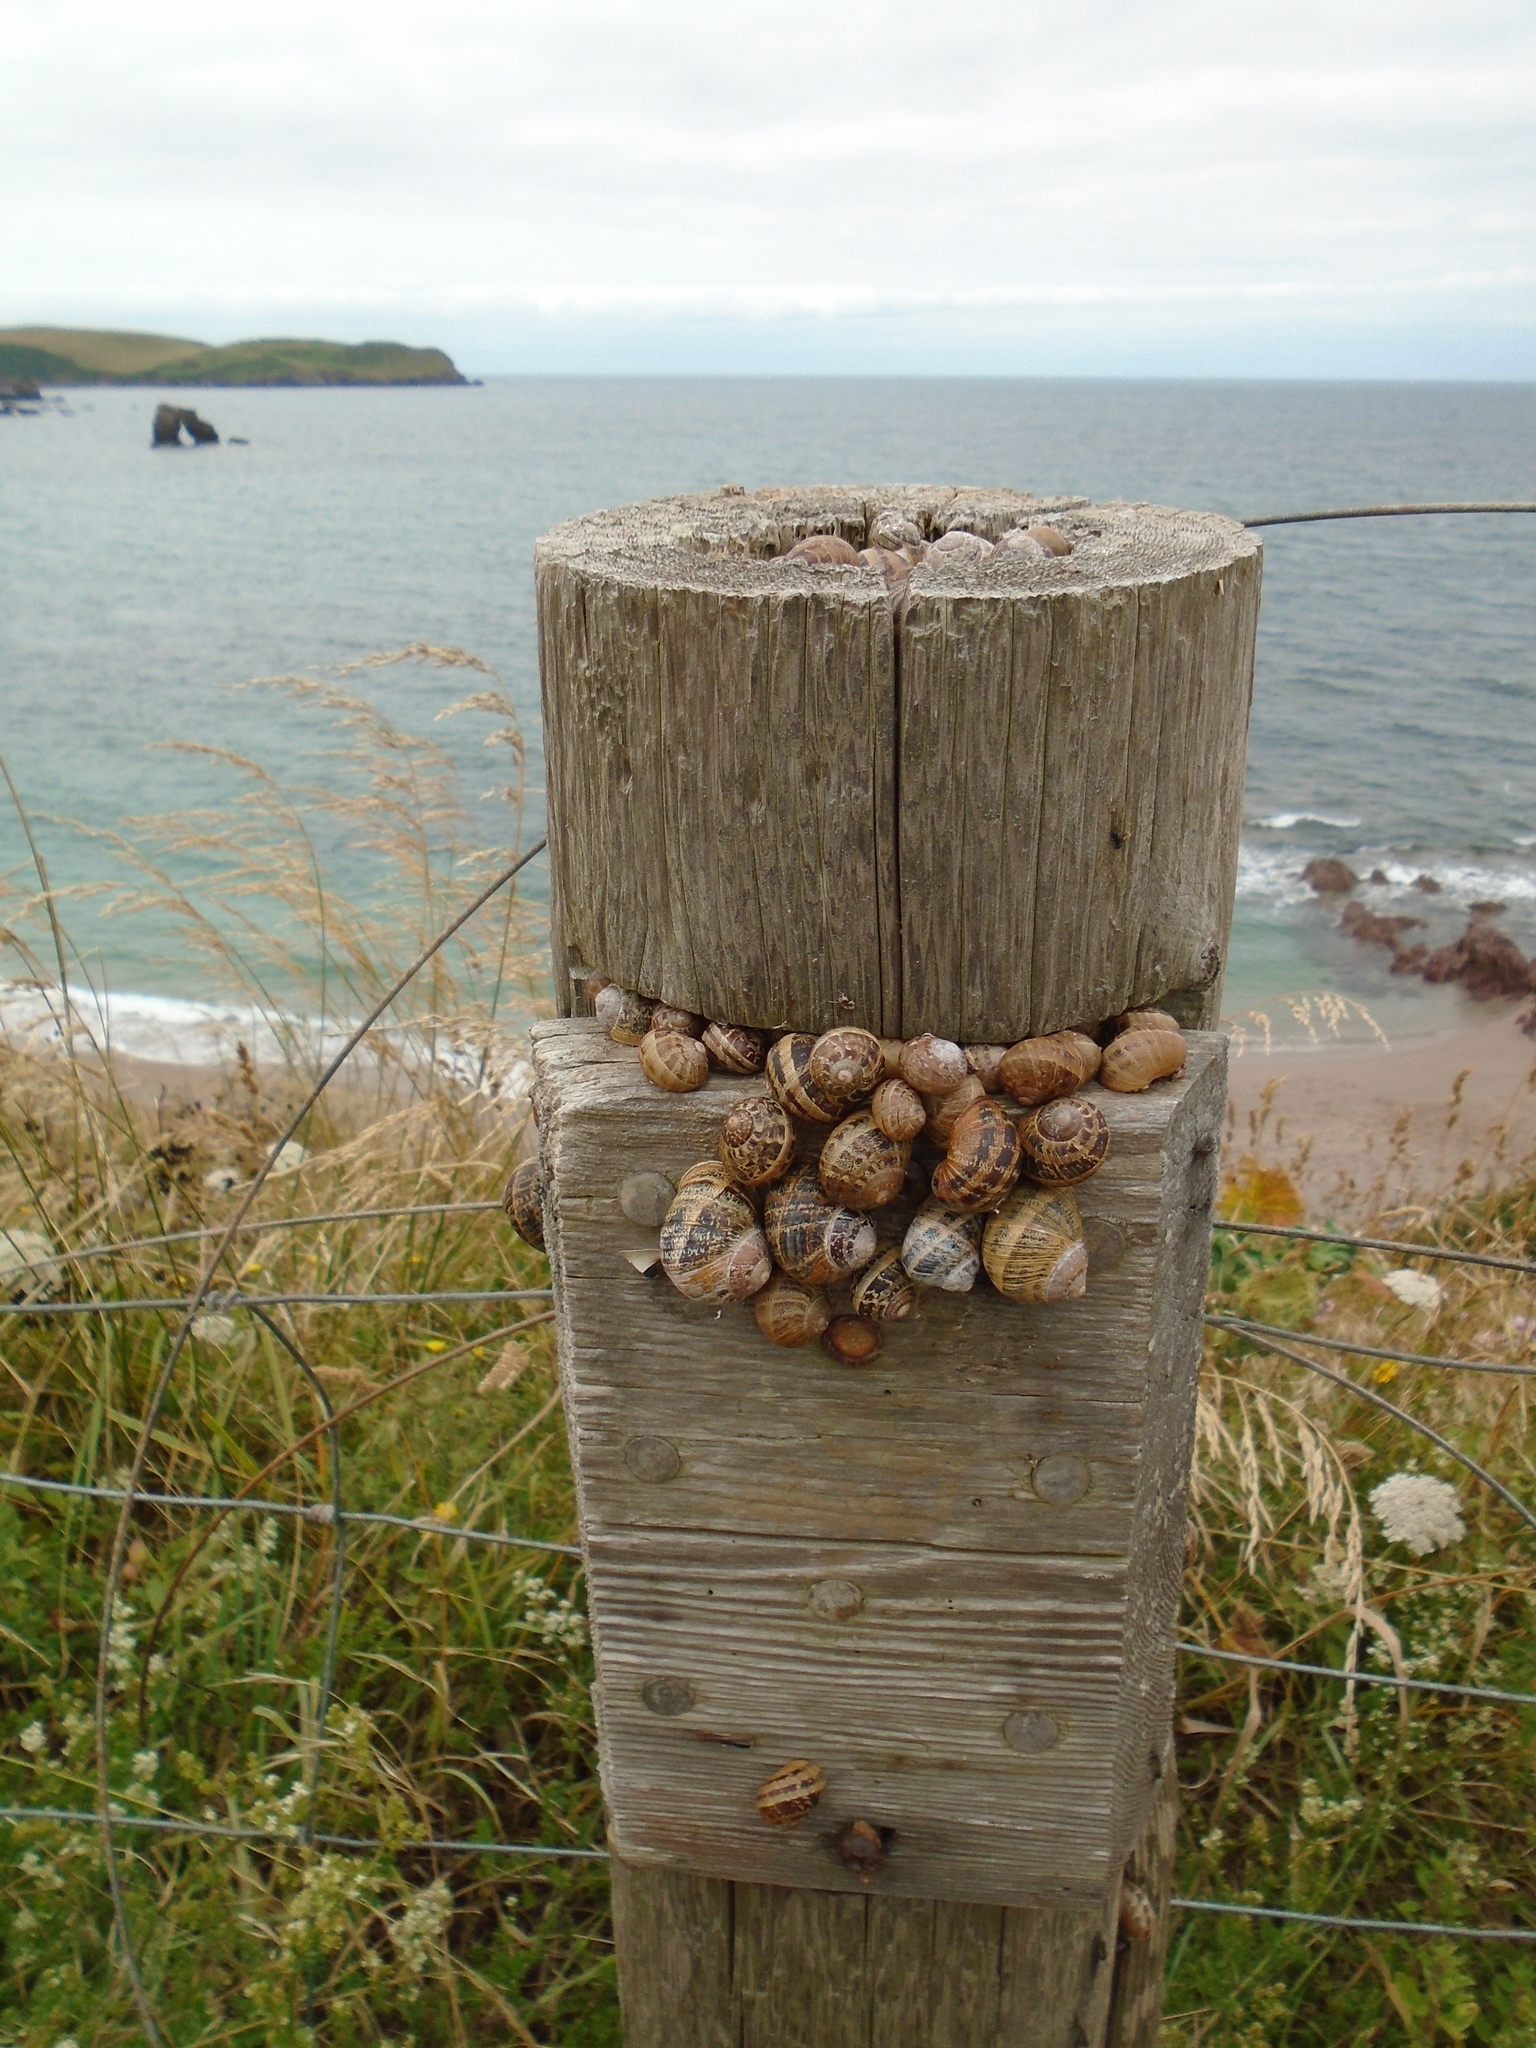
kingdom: Animalia
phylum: Mollusca
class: Gastropoda
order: Stylommatophora
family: Helicidae
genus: Cornu
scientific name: Cornu aspersum
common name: Brown garden snail
